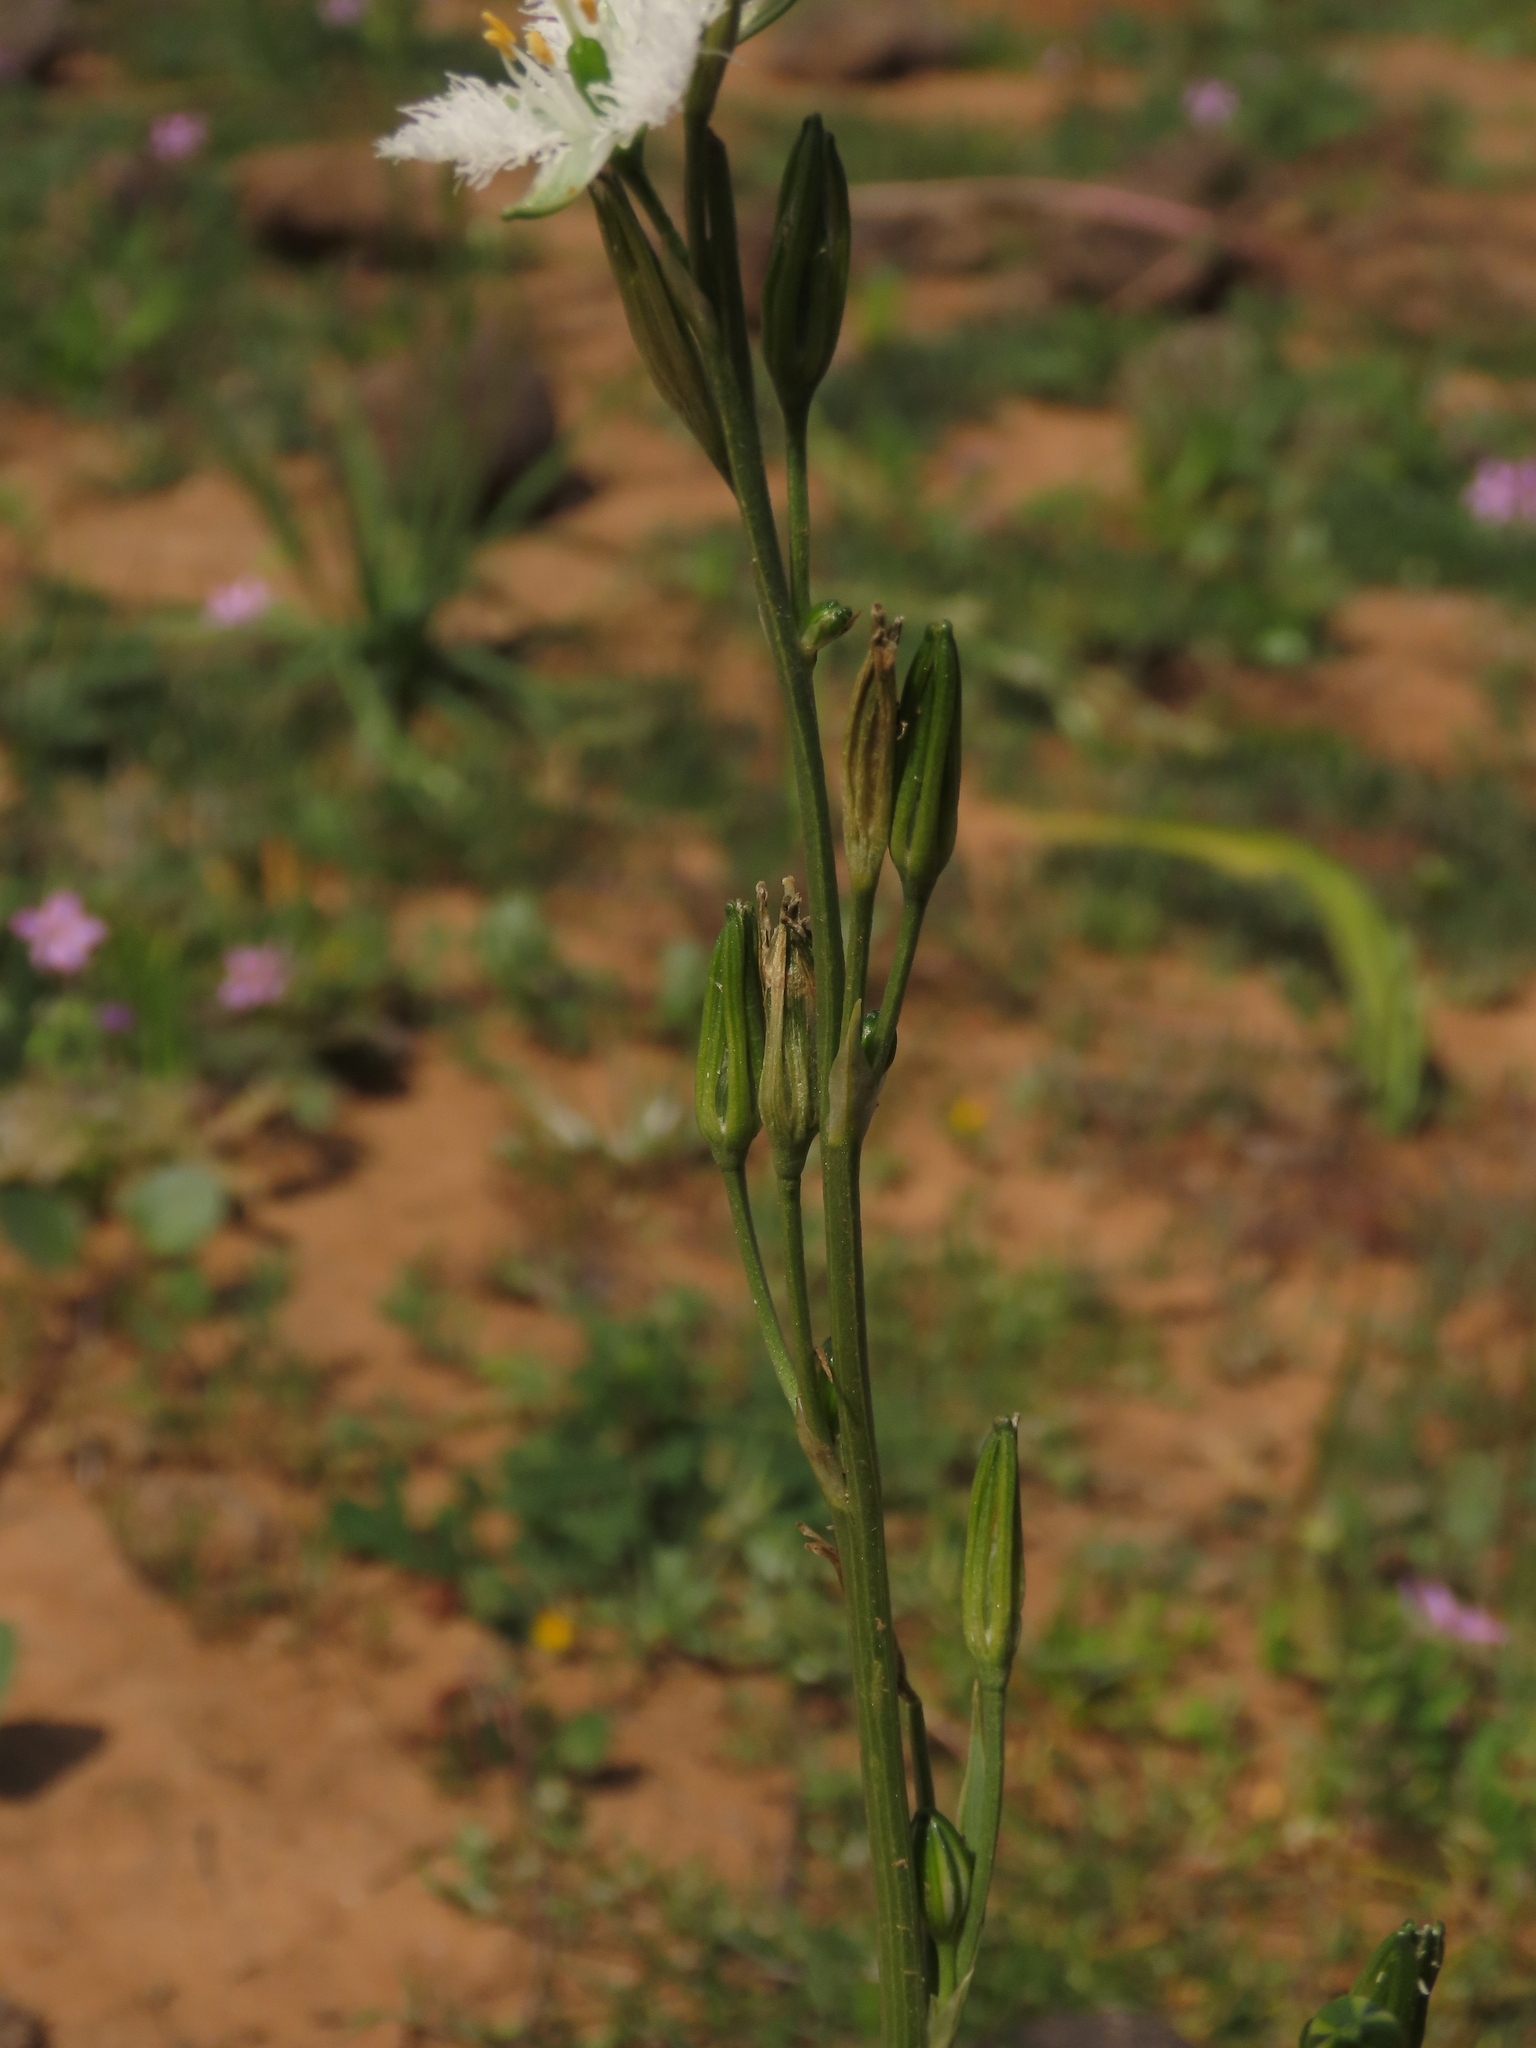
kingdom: Plantae
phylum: Tracheophyta
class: Liliopsida
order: Asparagales
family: Asparagaceae
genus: Trichopetalum
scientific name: Trichopetalum plumosum
